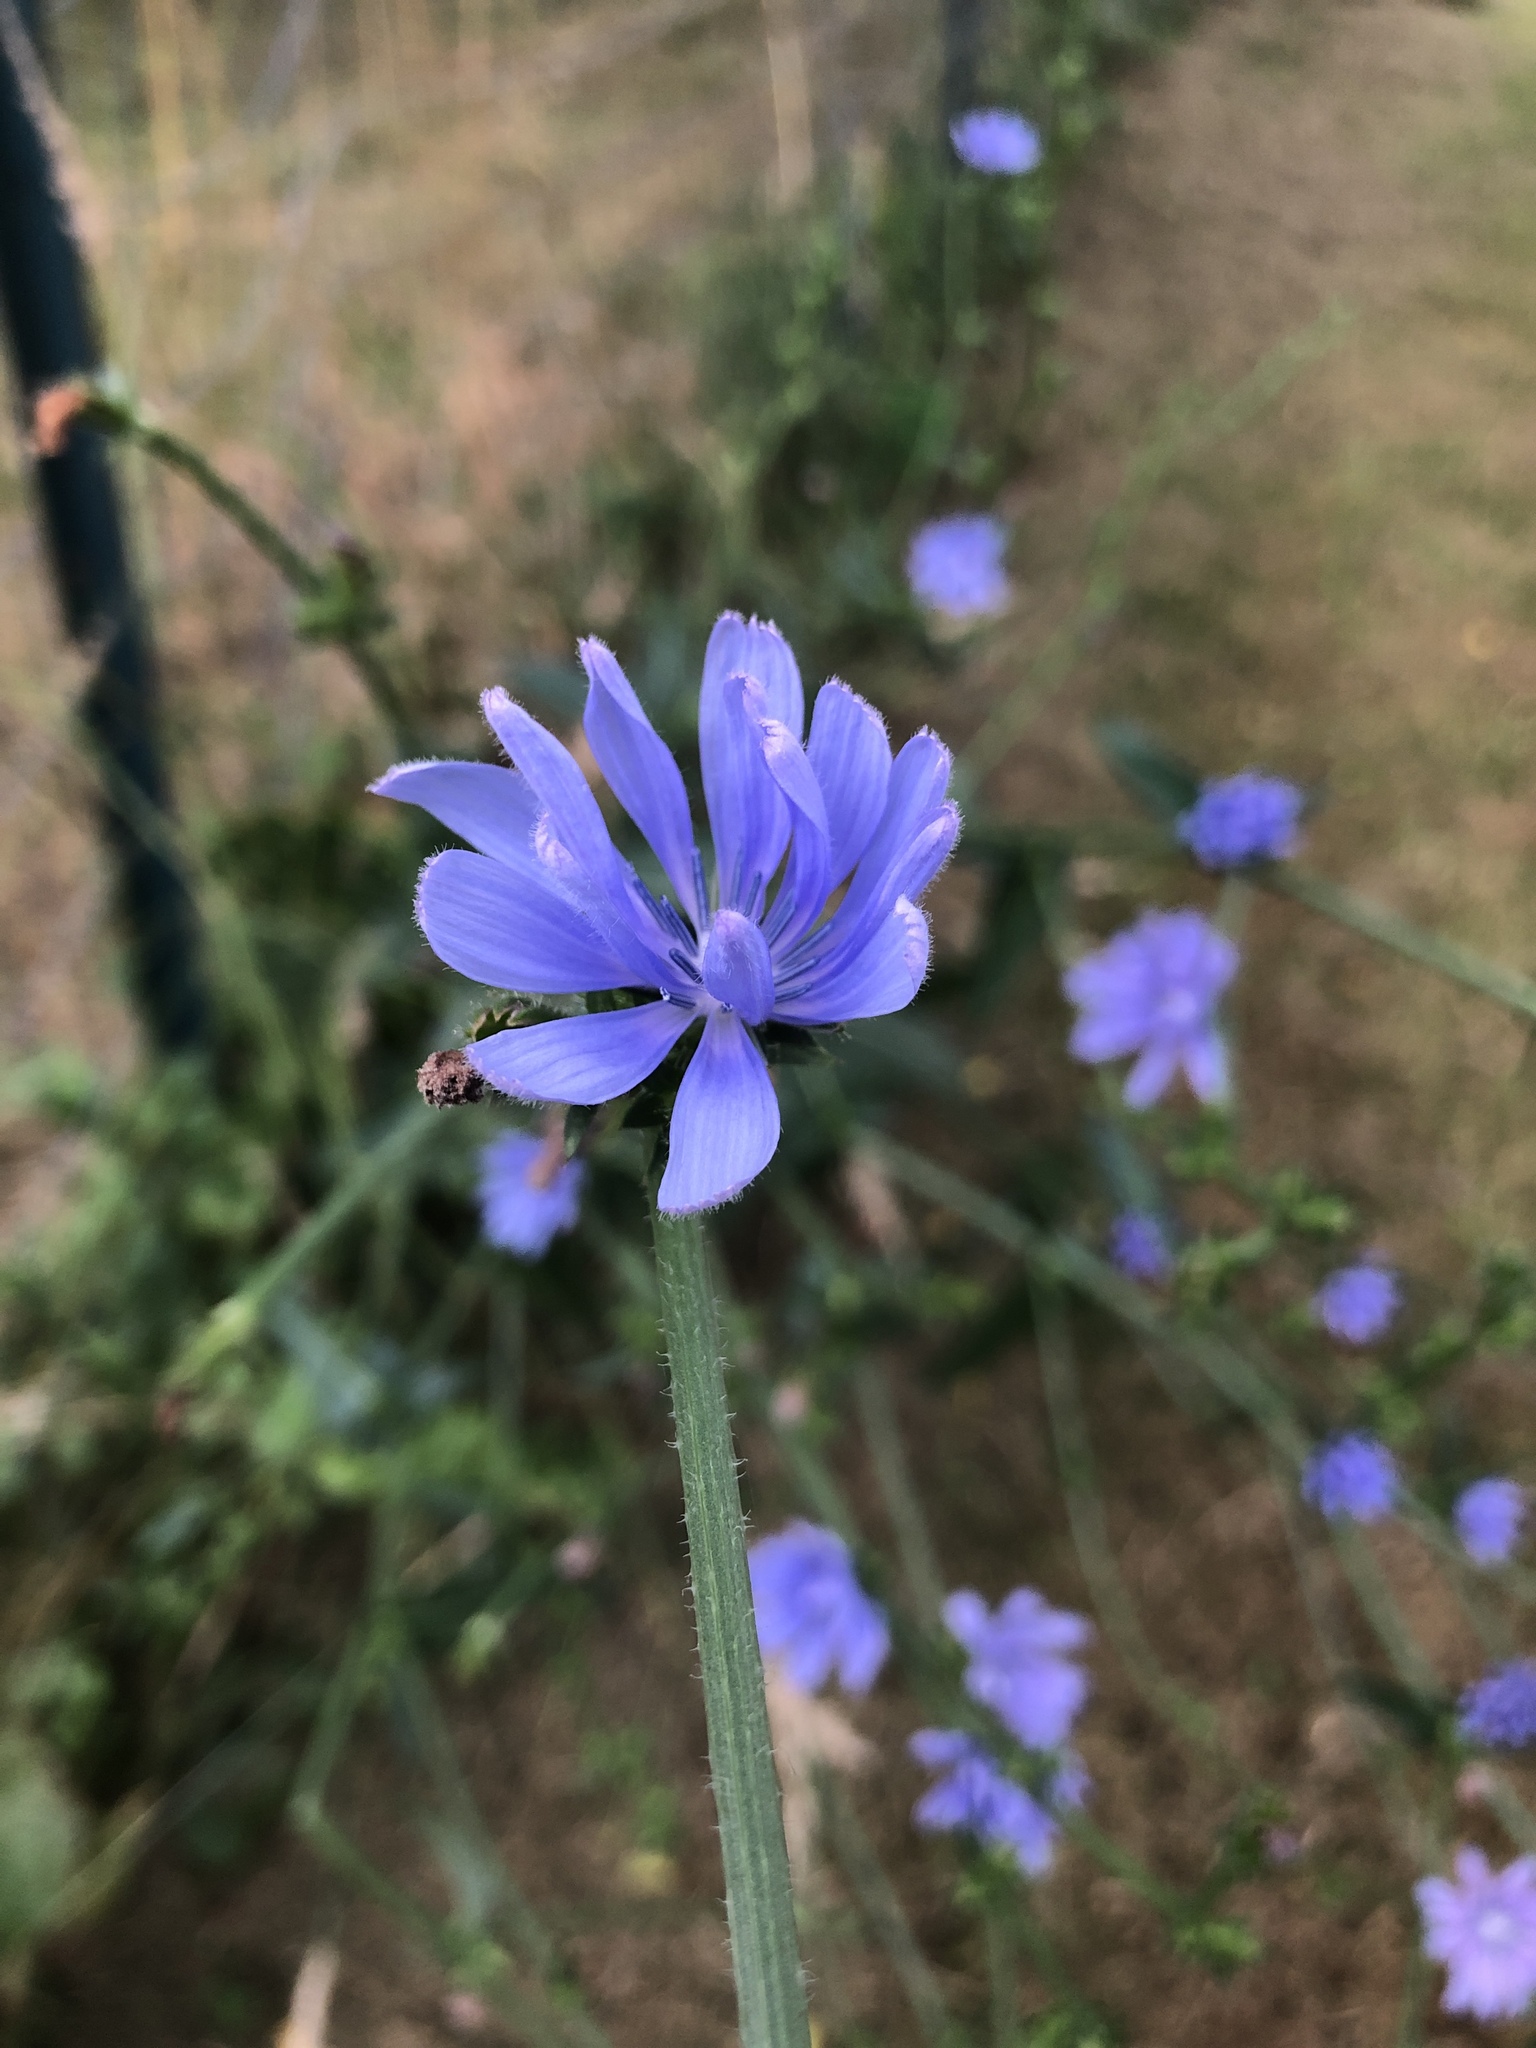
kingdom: Plantae
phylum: Tracheophyta
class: Magnoliopsida
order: Asterales
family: Asteraceae
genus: Cichorium
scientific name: Cichorium intybus
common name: Chicory
